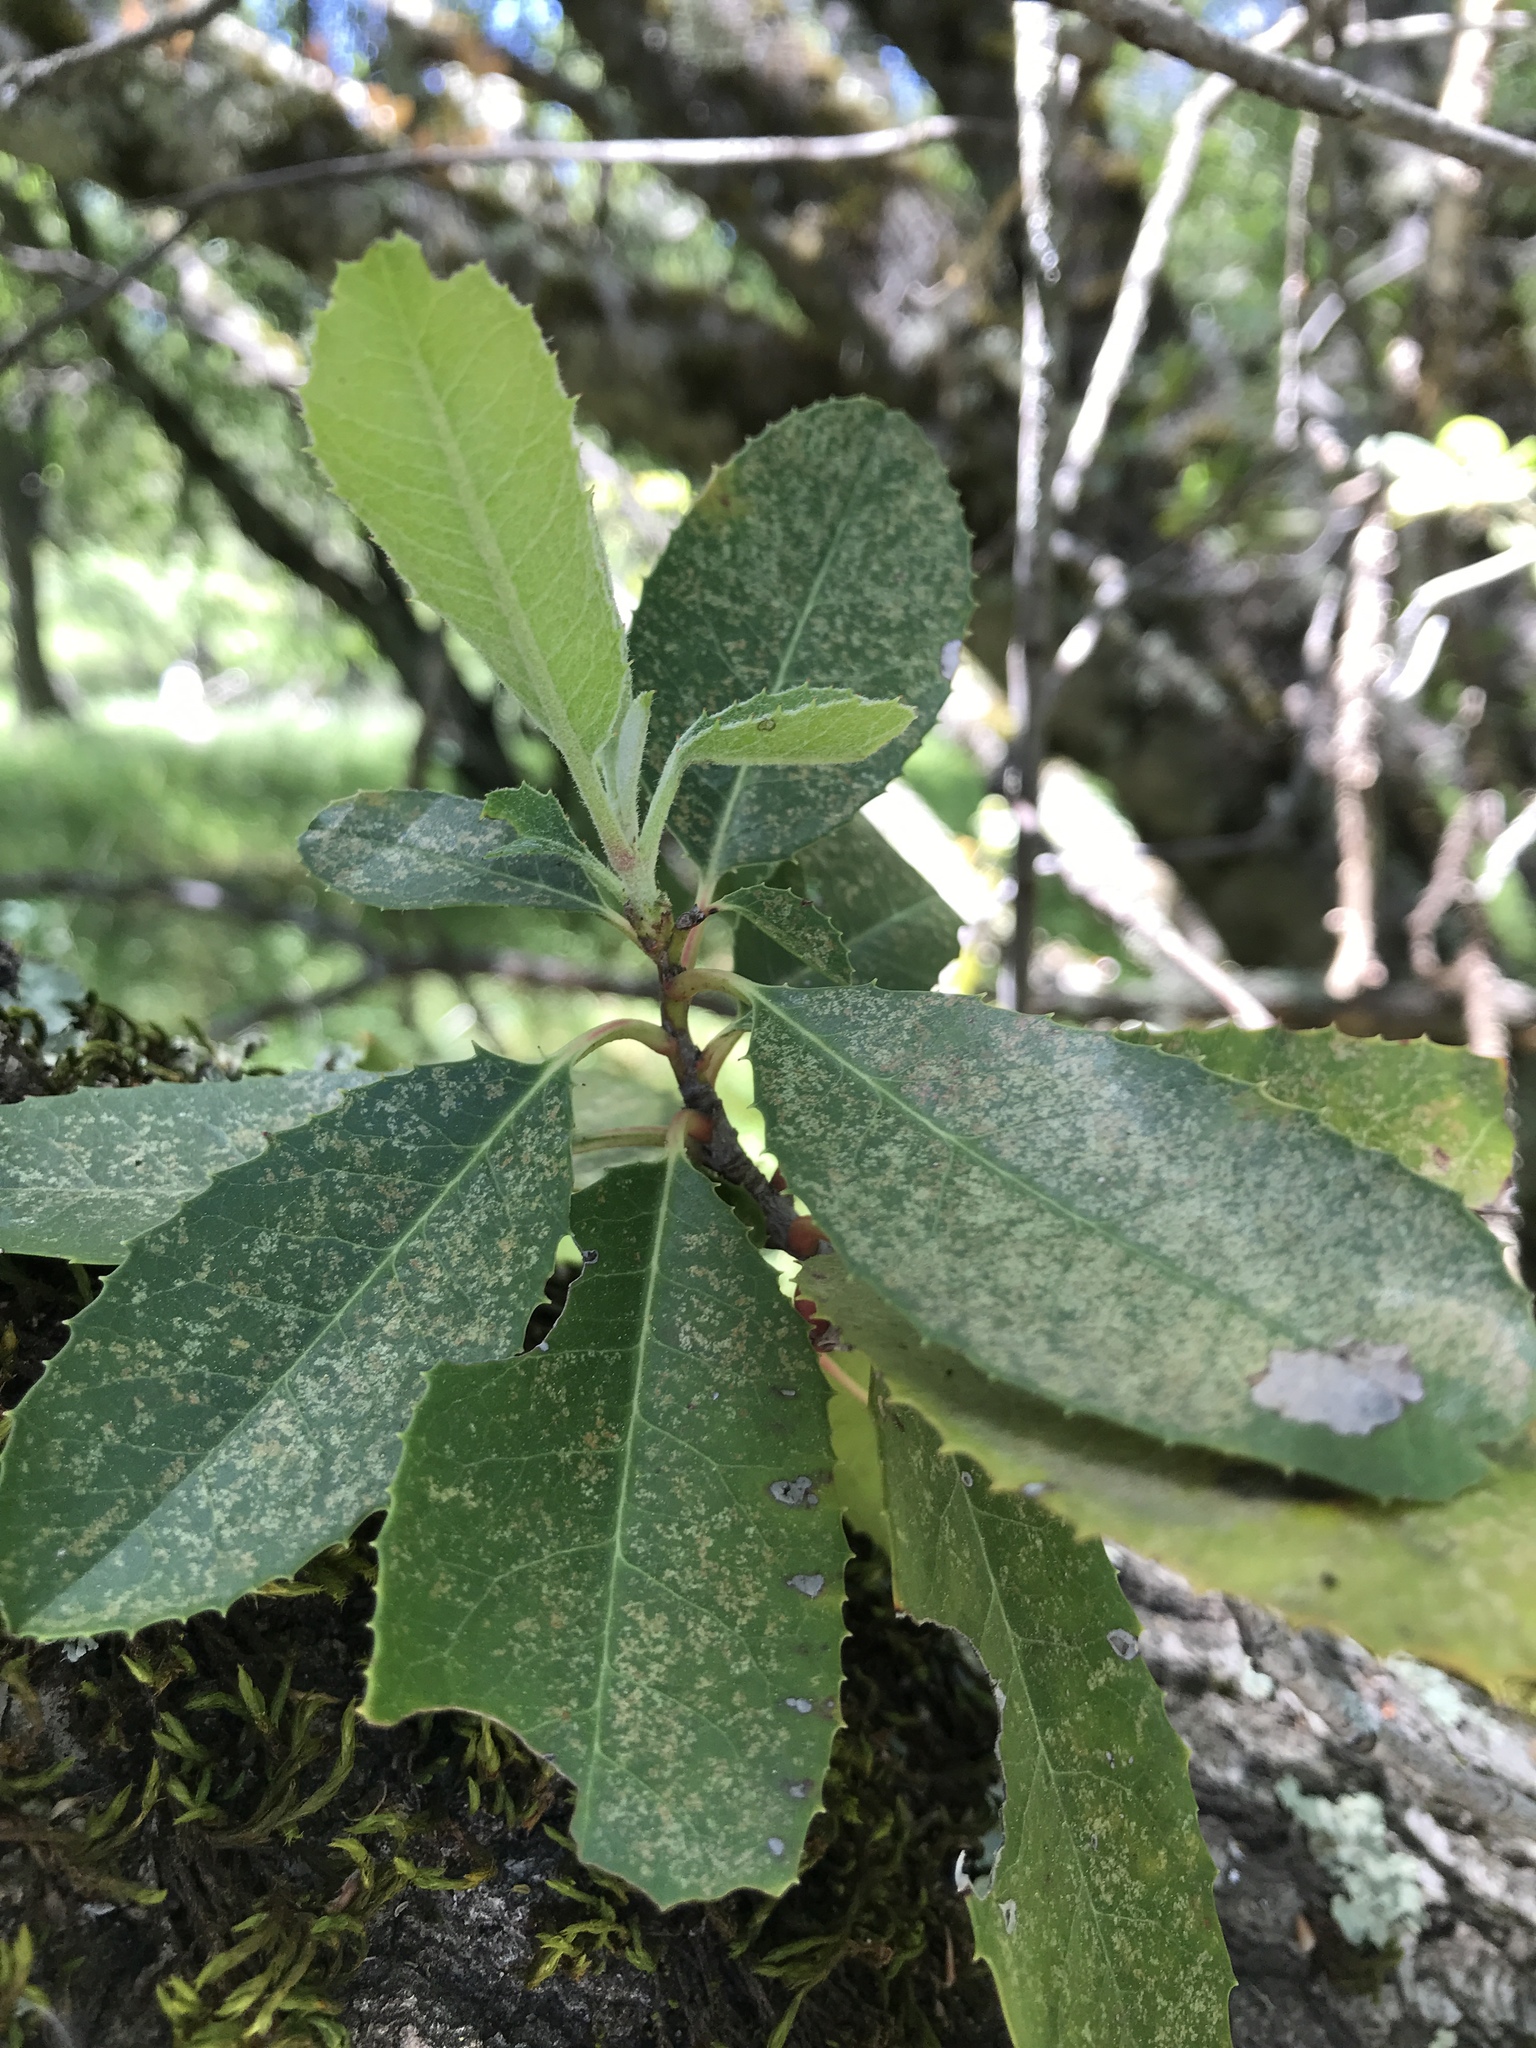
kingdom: Plantae
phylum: Tracheophyta
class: Magnoliopsida
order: Rosales
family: Rosaceae
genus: Heteromeles
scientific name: Heteromeles arbutifolia
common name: California-holly
